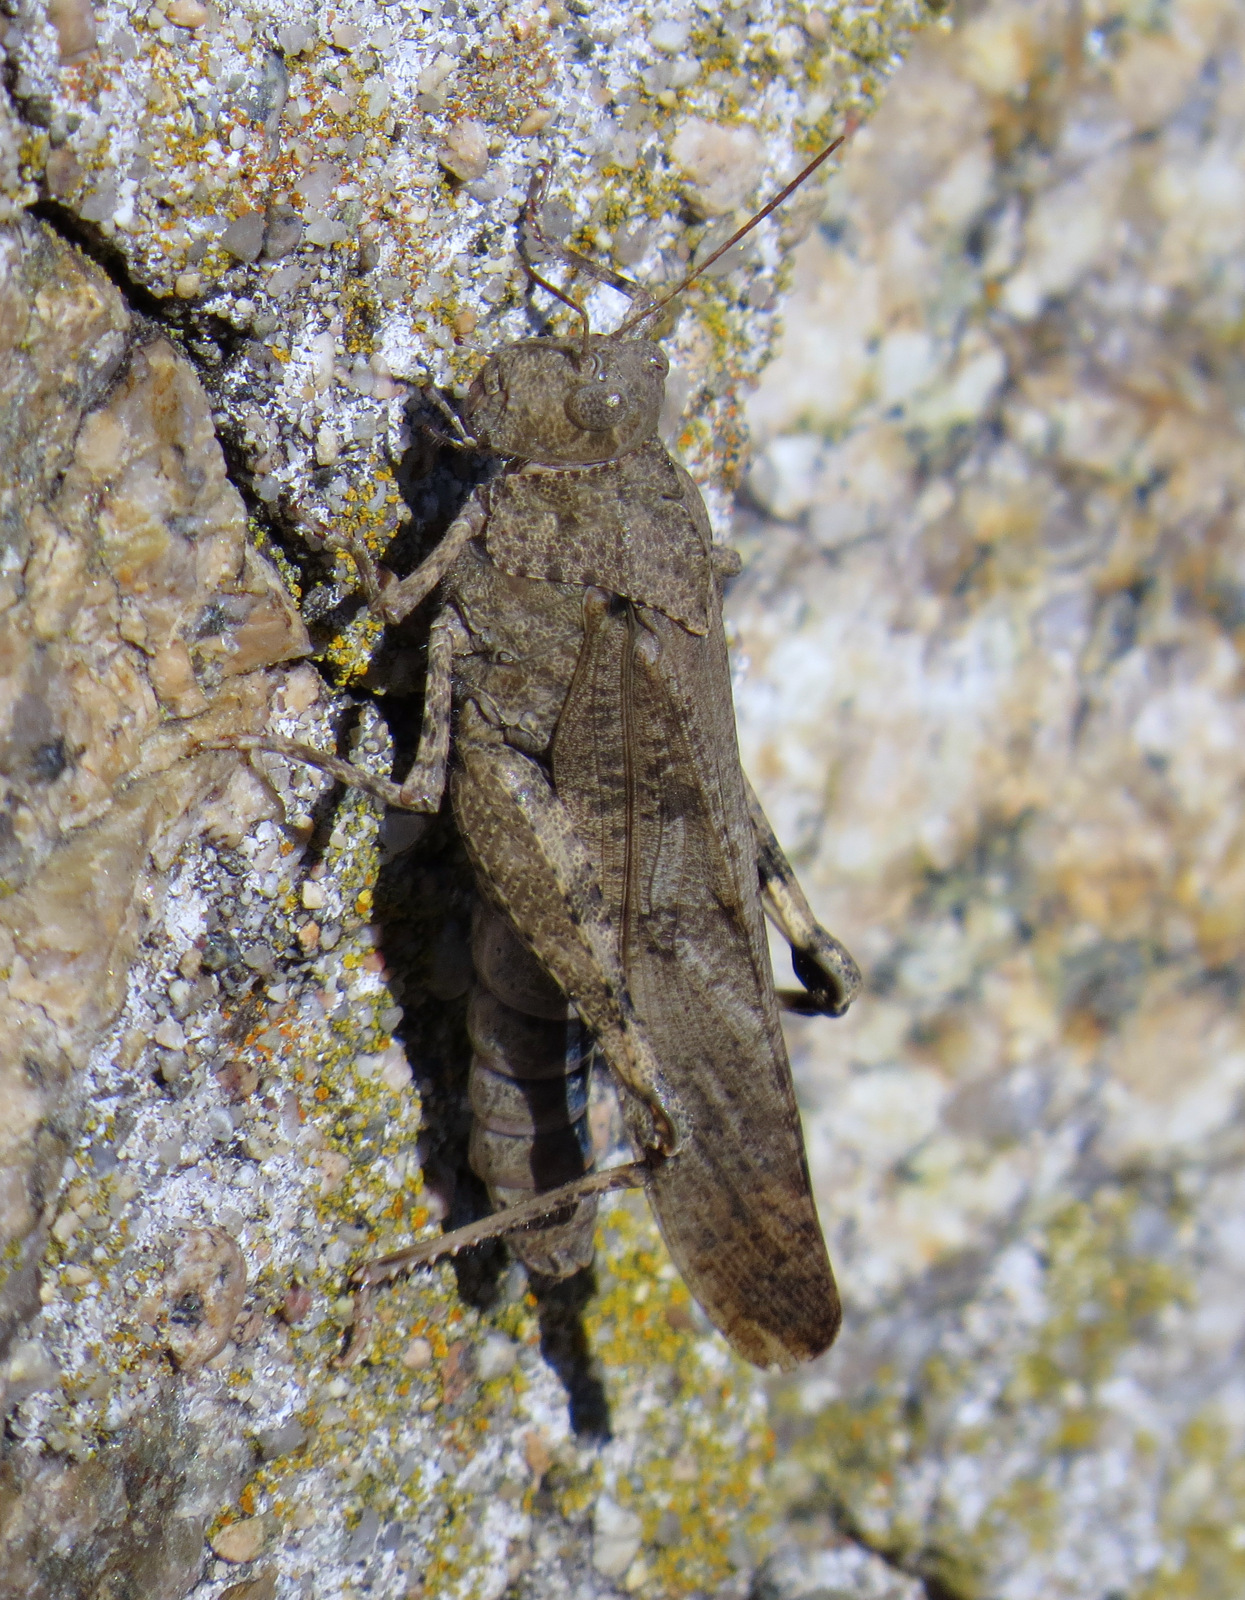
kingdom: Animalia
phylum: Arthropoda
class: Insecta
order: Orthoptera
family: Acrididae
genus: Dissosteira
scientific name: Dissosteira carolina
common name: Carolina grasshopper
